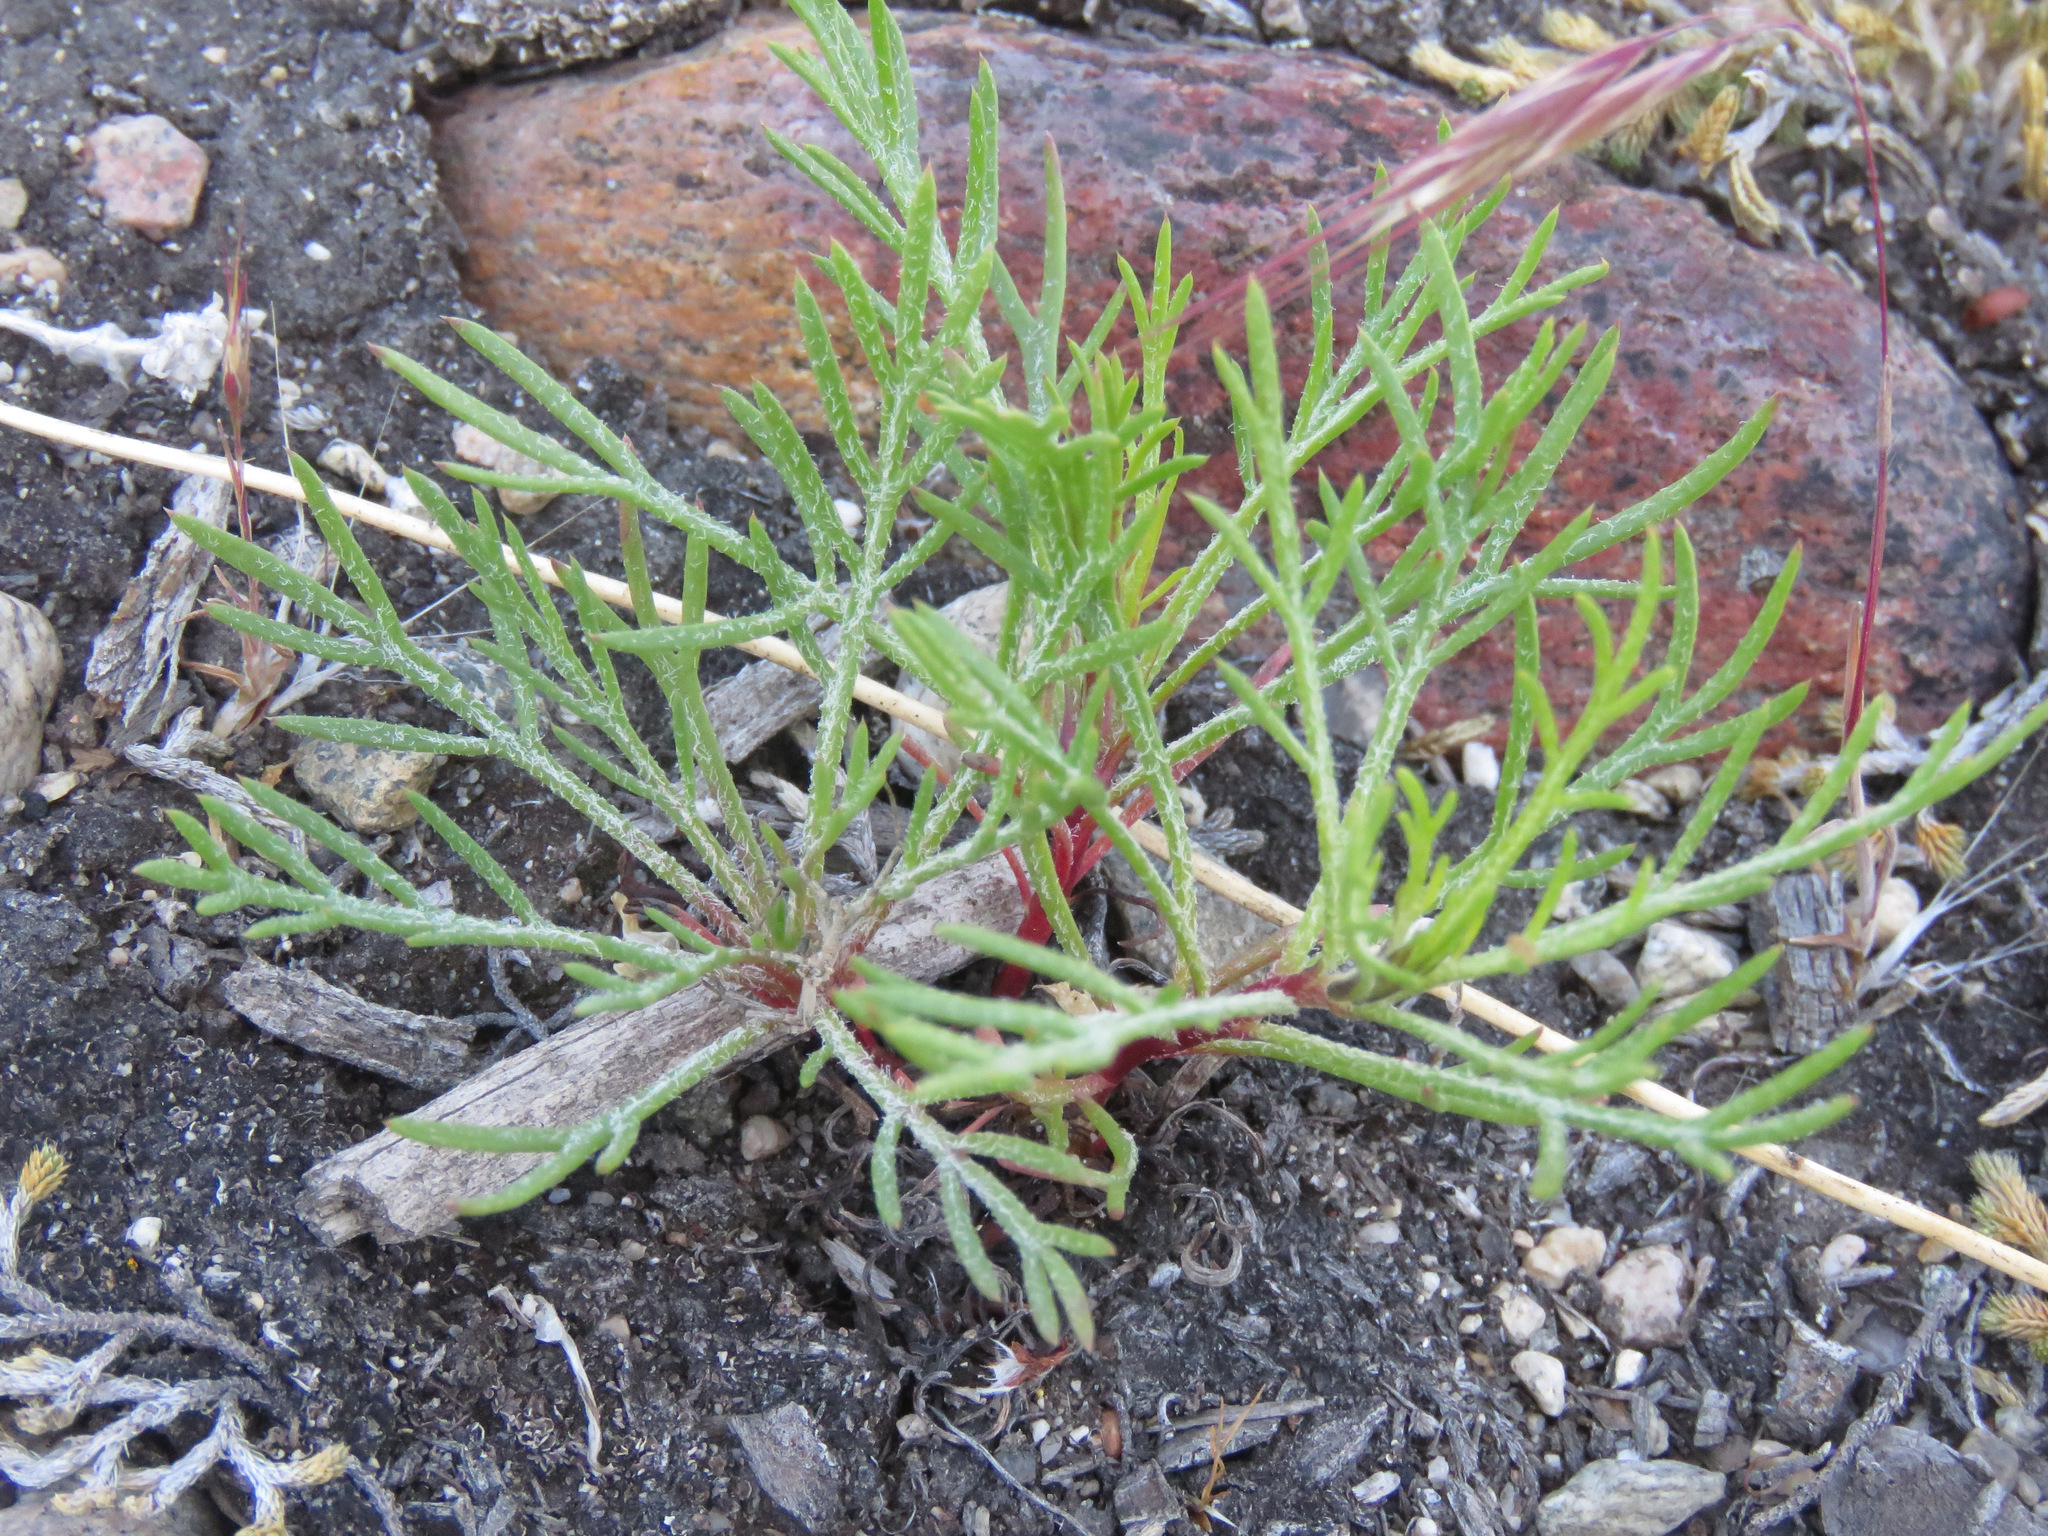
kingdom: Plantae
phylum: Tracheophyta
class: Magnoliopsida
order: Ericales
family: Polemoniaceae
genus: Ipomopsis
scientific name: Ipomopsis aggregata
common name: Scarlet gilia
